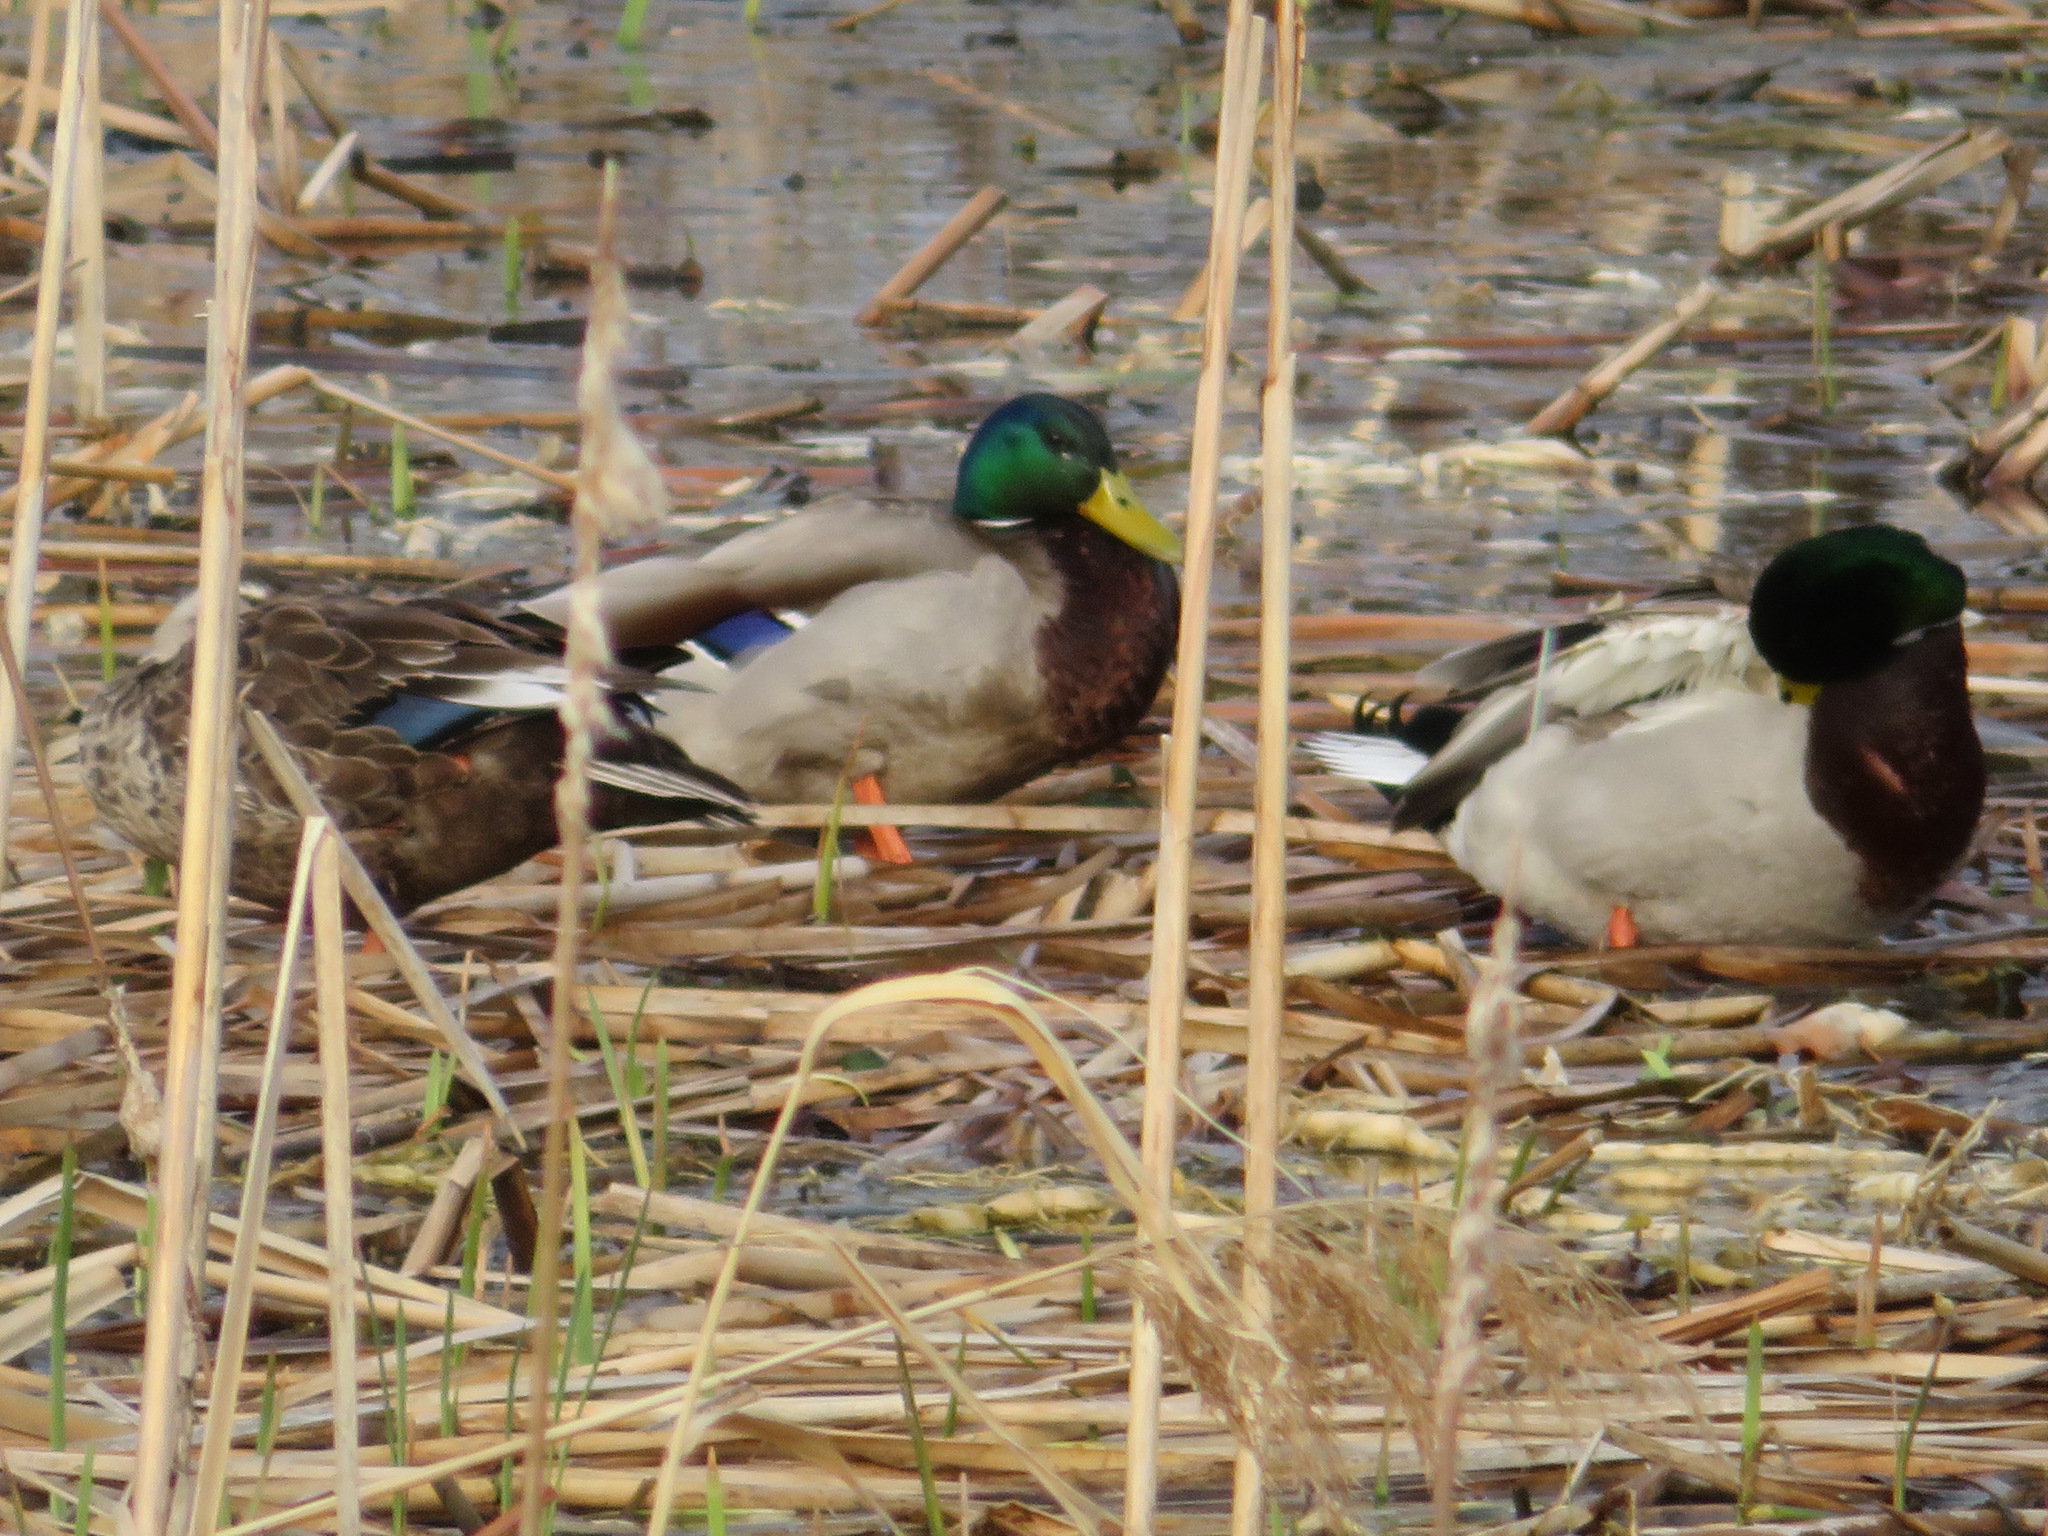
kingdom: Animalia
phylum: Chordata
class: Aves
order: Anseriformes
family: Anatidae
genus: Anas
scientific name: Anas platyrhynchos
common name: Mallard
